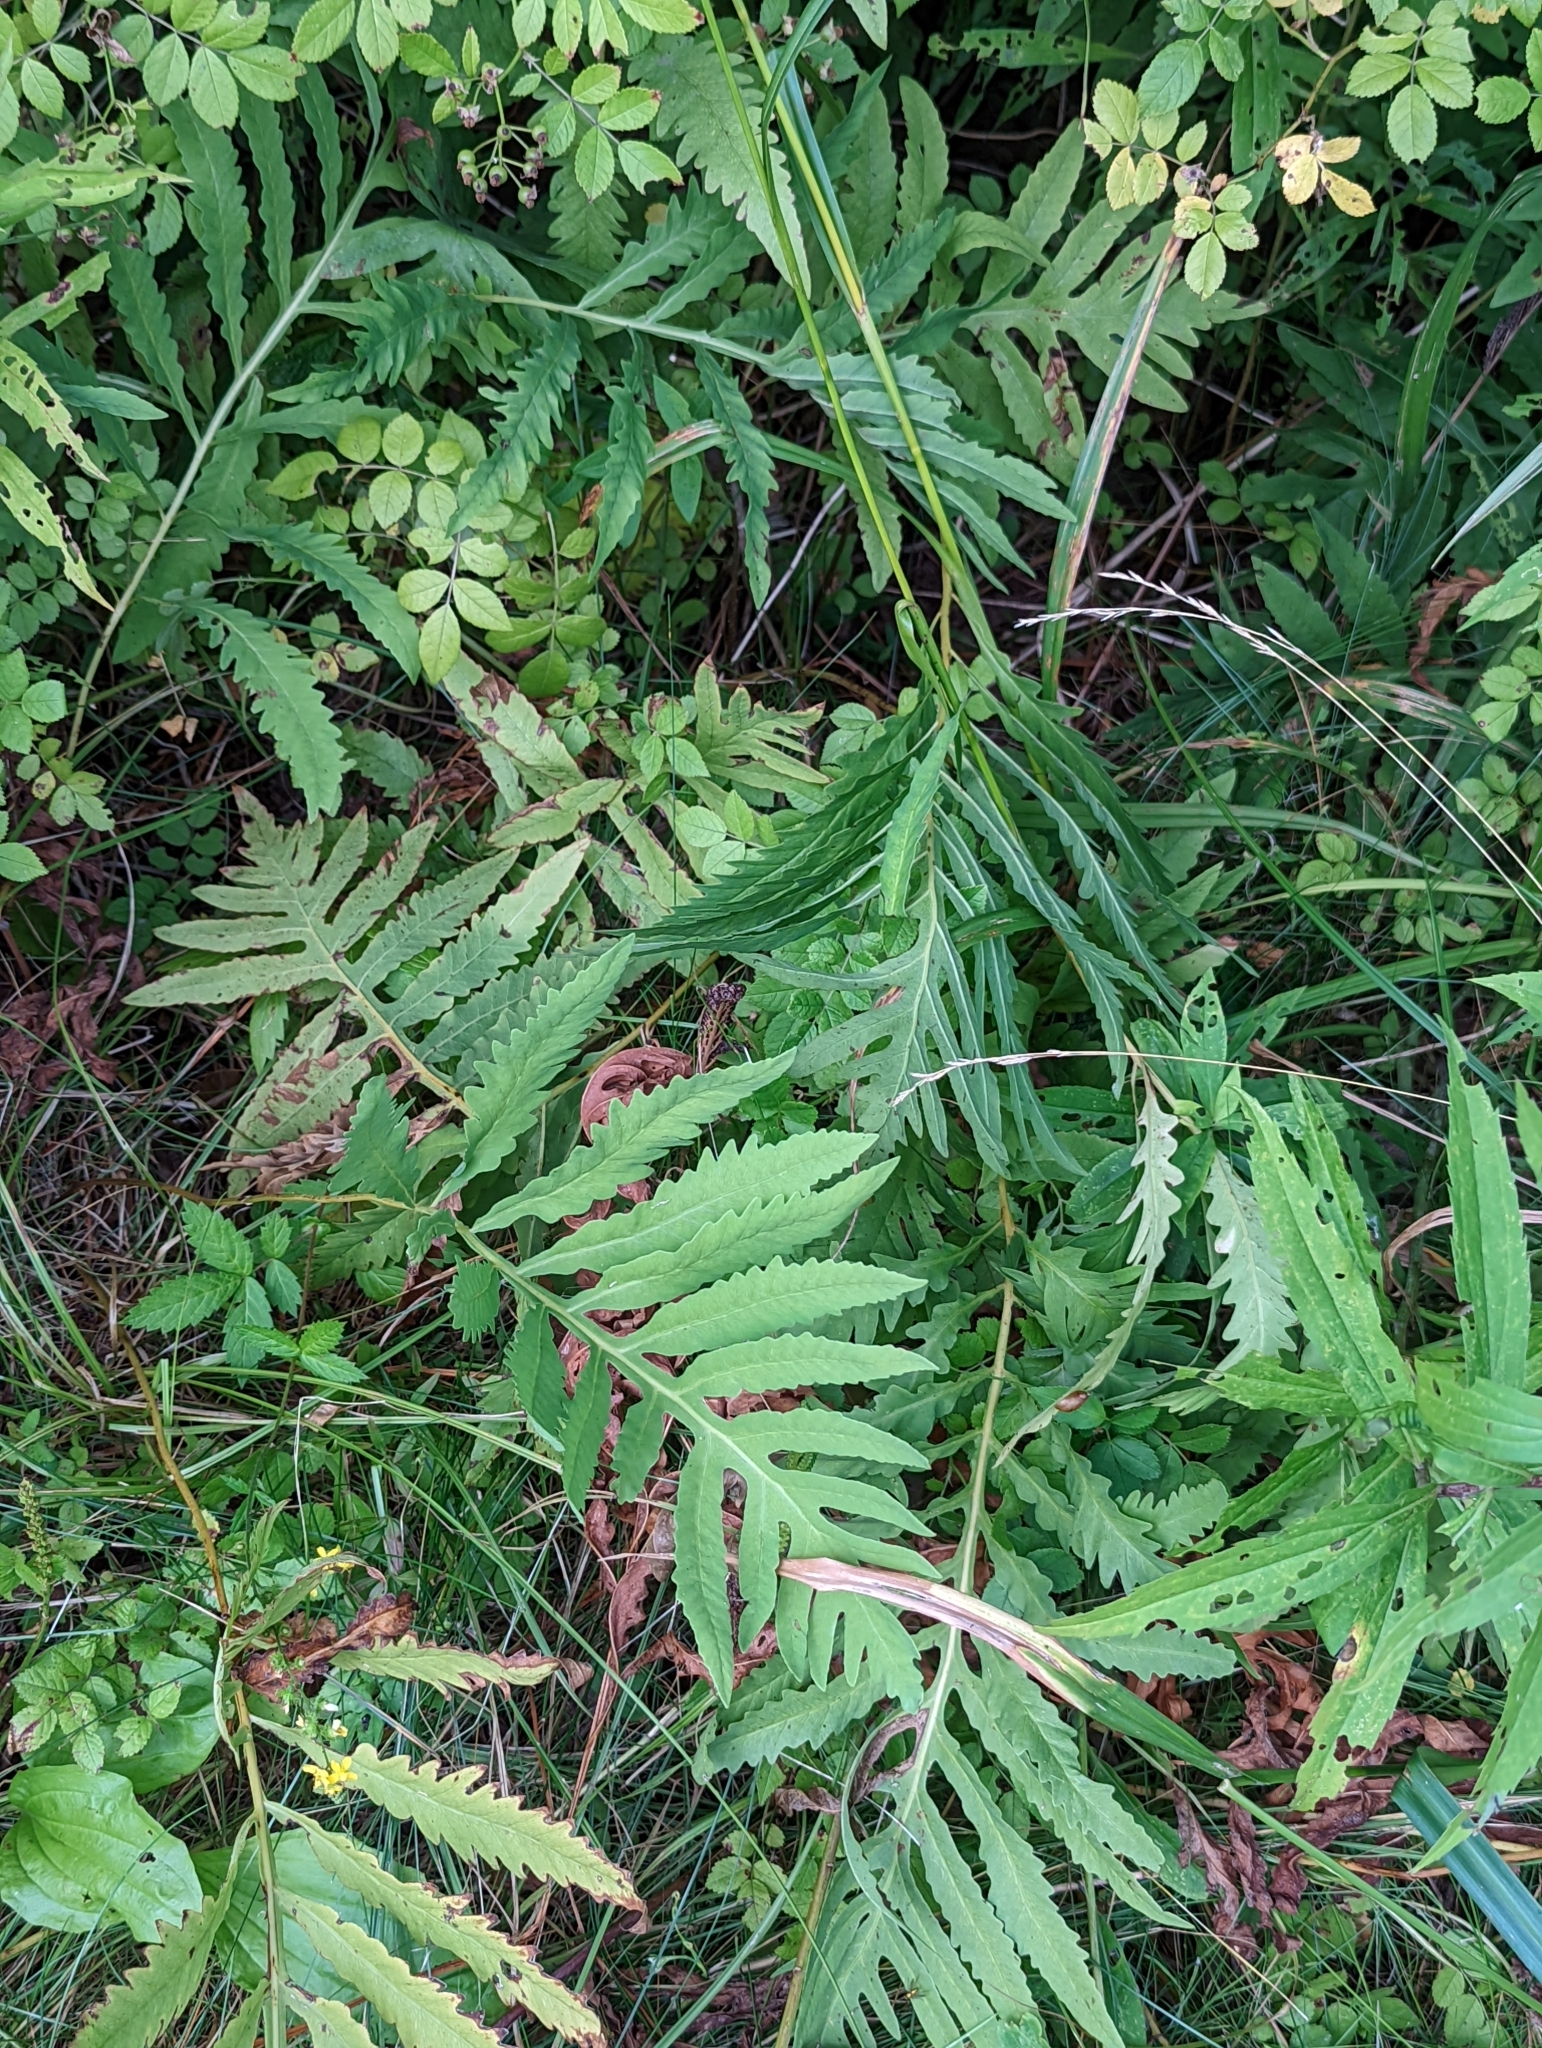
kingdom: Plantae
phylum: Tracheophyta
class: Polypodiopsida
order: Polypodiales
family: Onocleaceae
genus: Onoclea
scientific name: Onoclea sensibilis
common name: Sensitive fern
